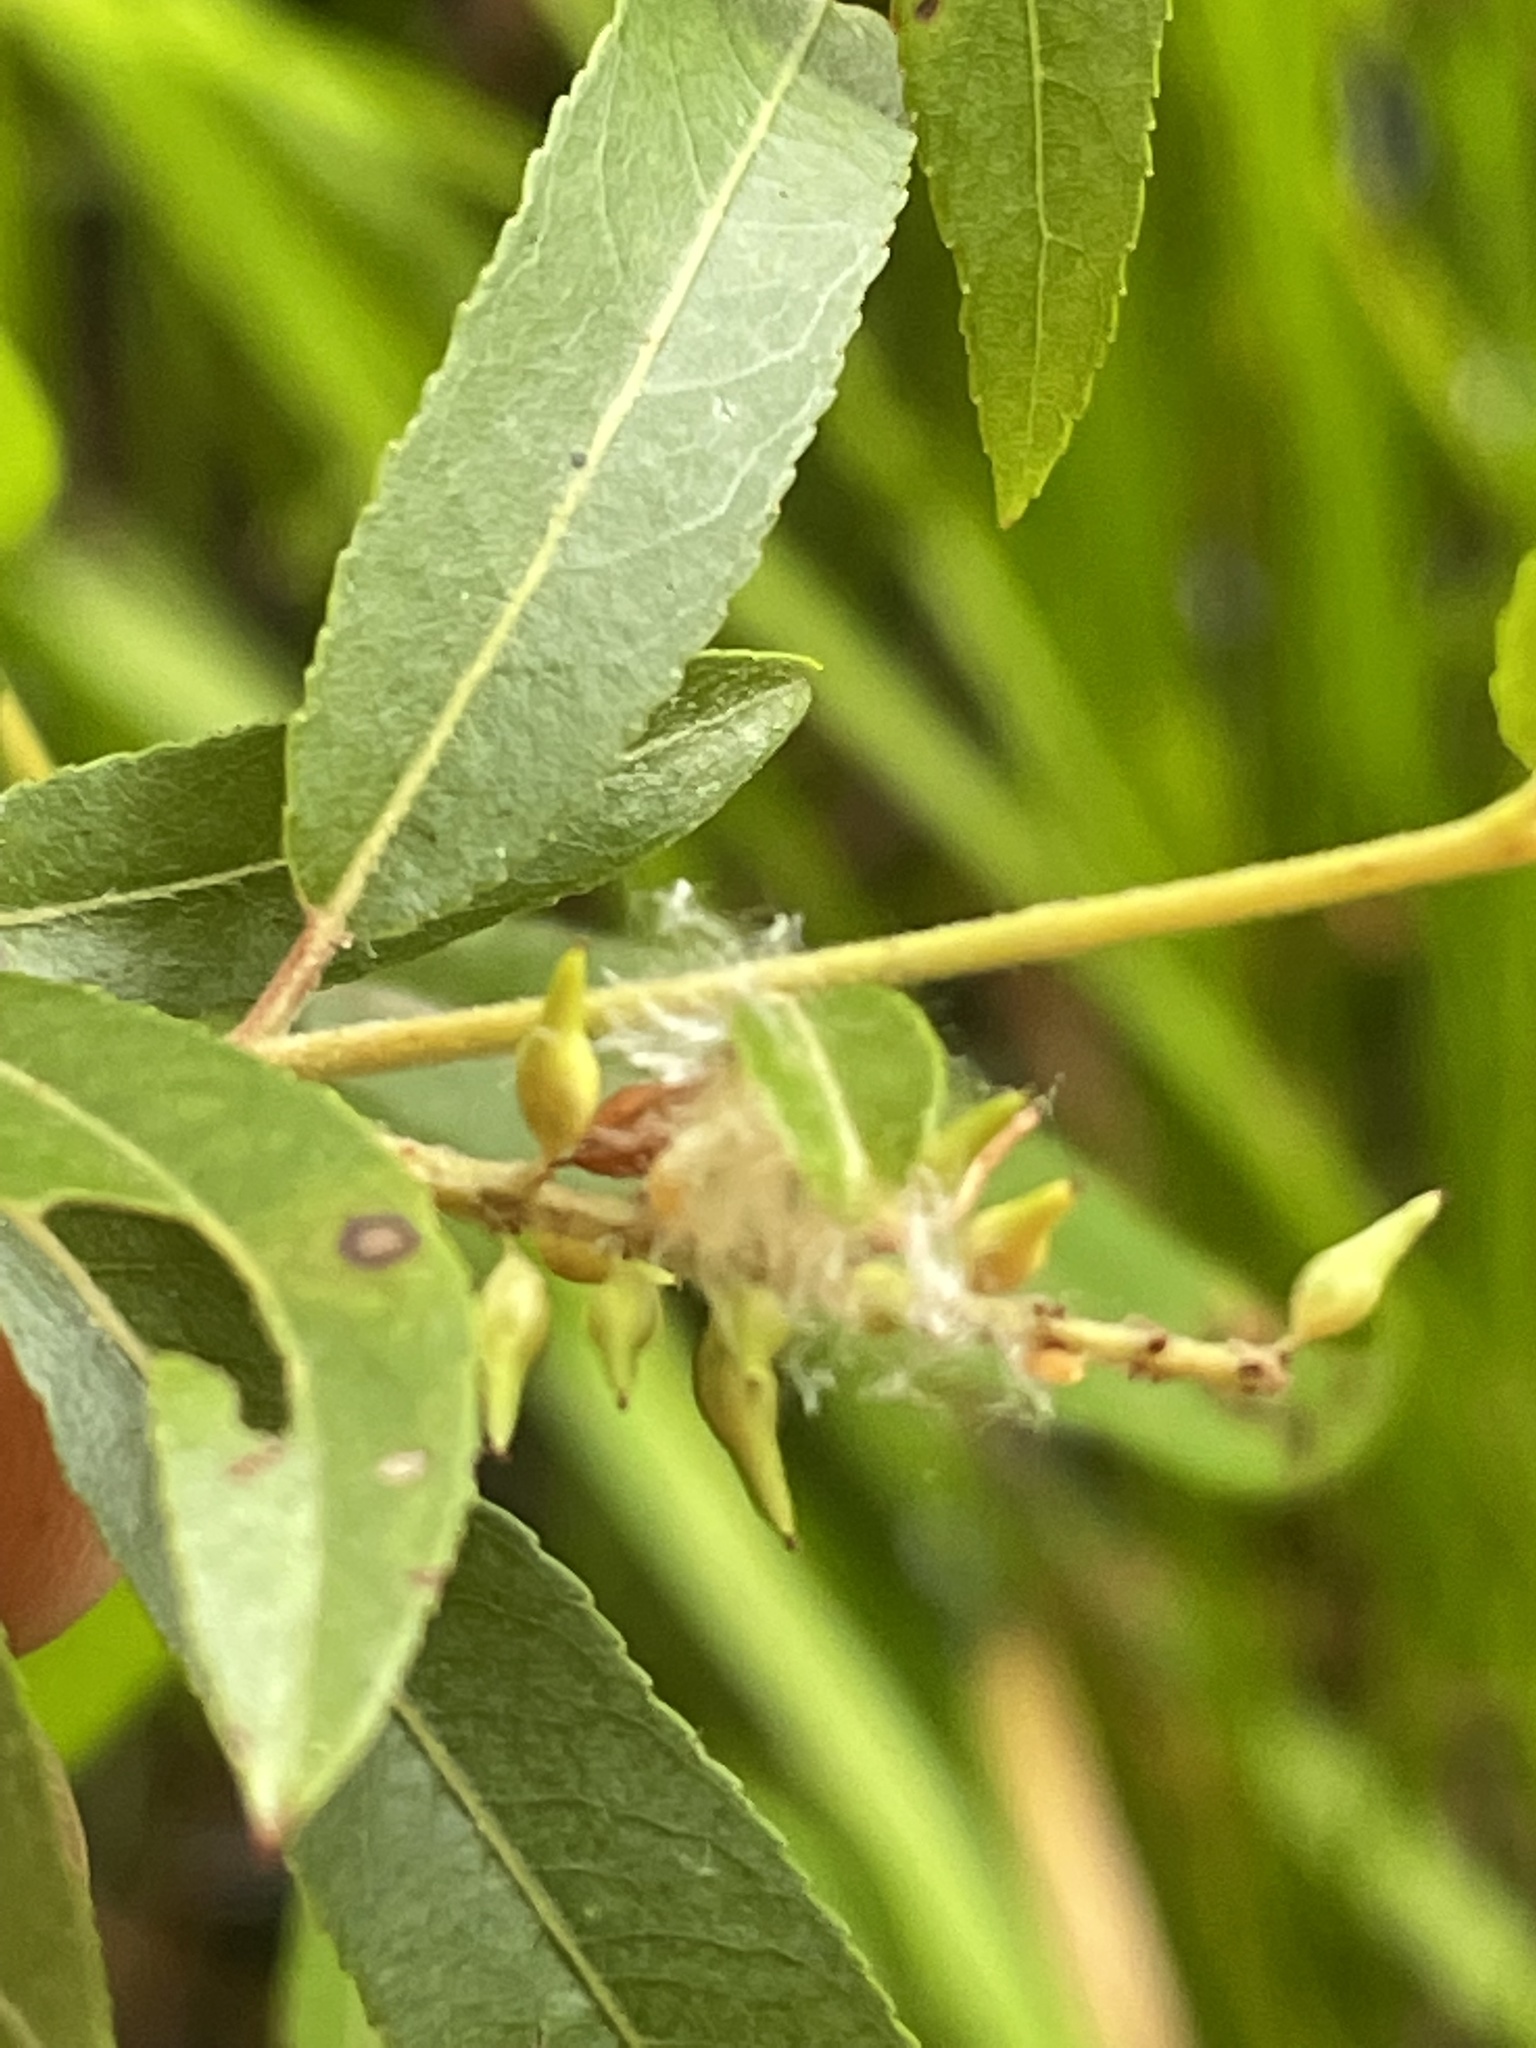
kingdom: Plantae
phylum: Tracheophyta
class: Magnoliopsida
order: Malpighiales
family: Salicaceae
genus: Salix
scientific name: Salix nigra
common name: Black willow
